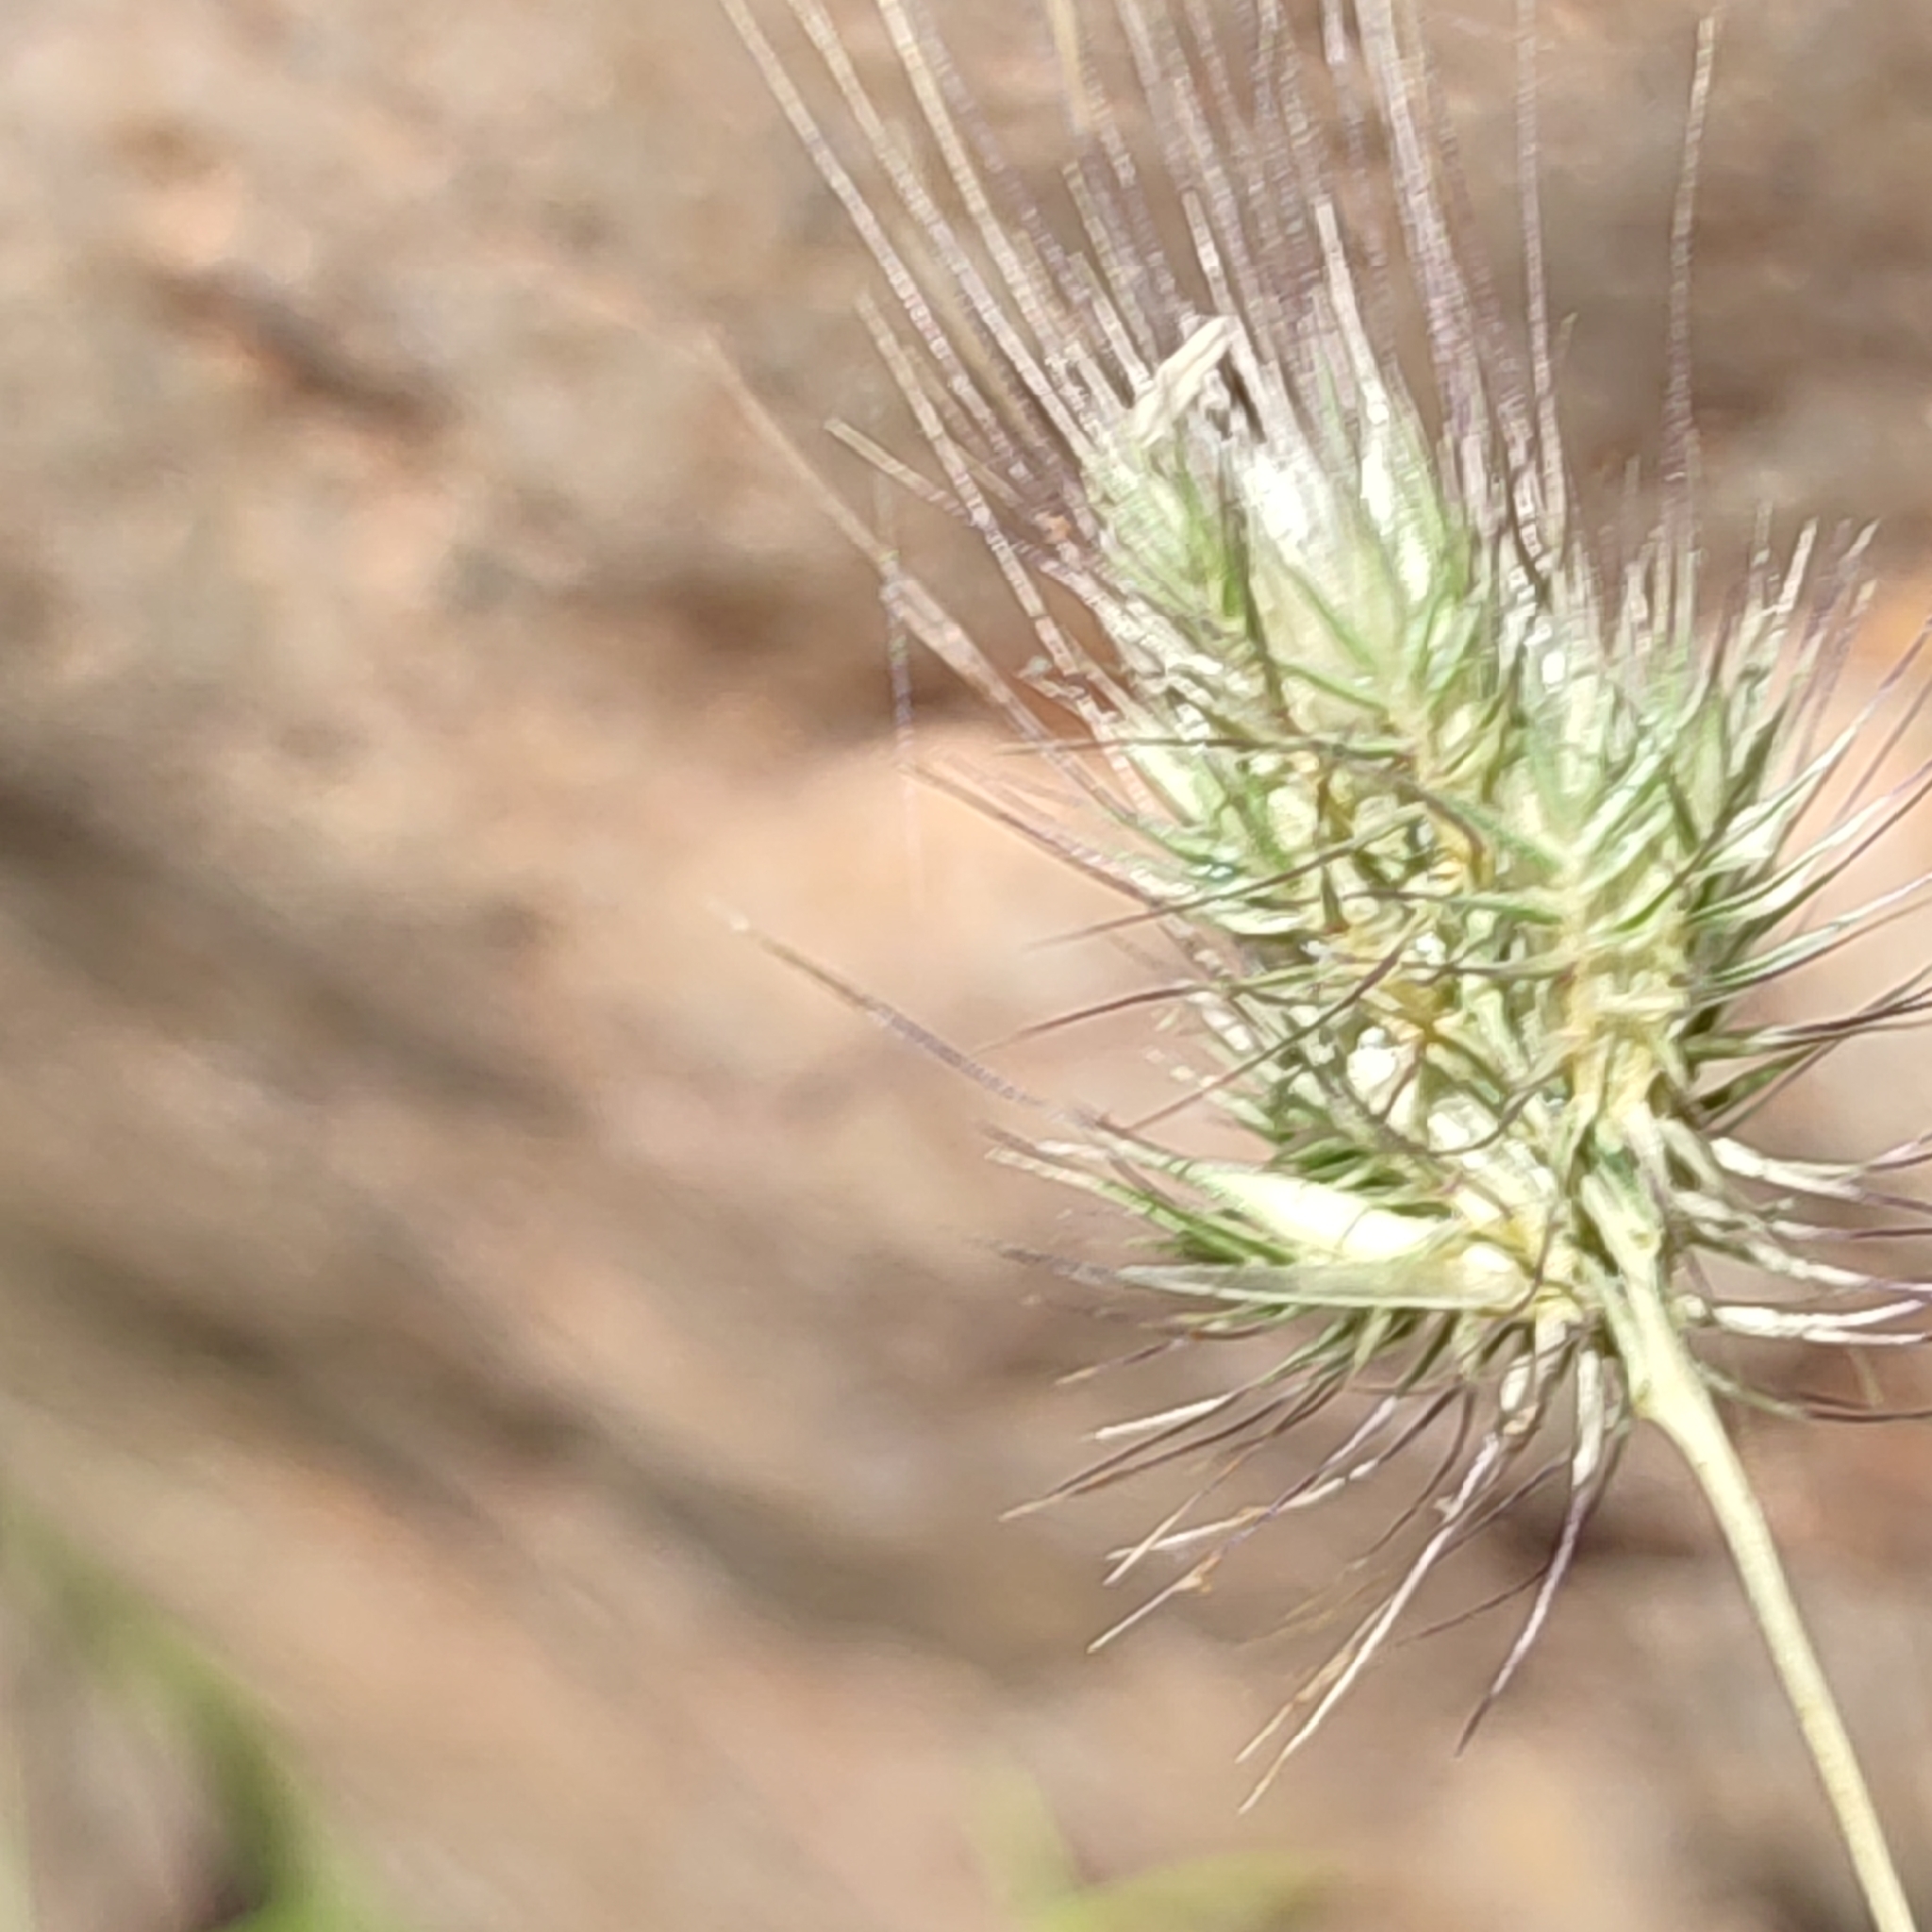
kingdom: Plantae
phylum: Tracheophyta
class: Liliopsida
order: Poales
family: Poaceae
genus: Cynosurus
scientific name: Cynosurus echinatus
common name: Rough dog's-tail
